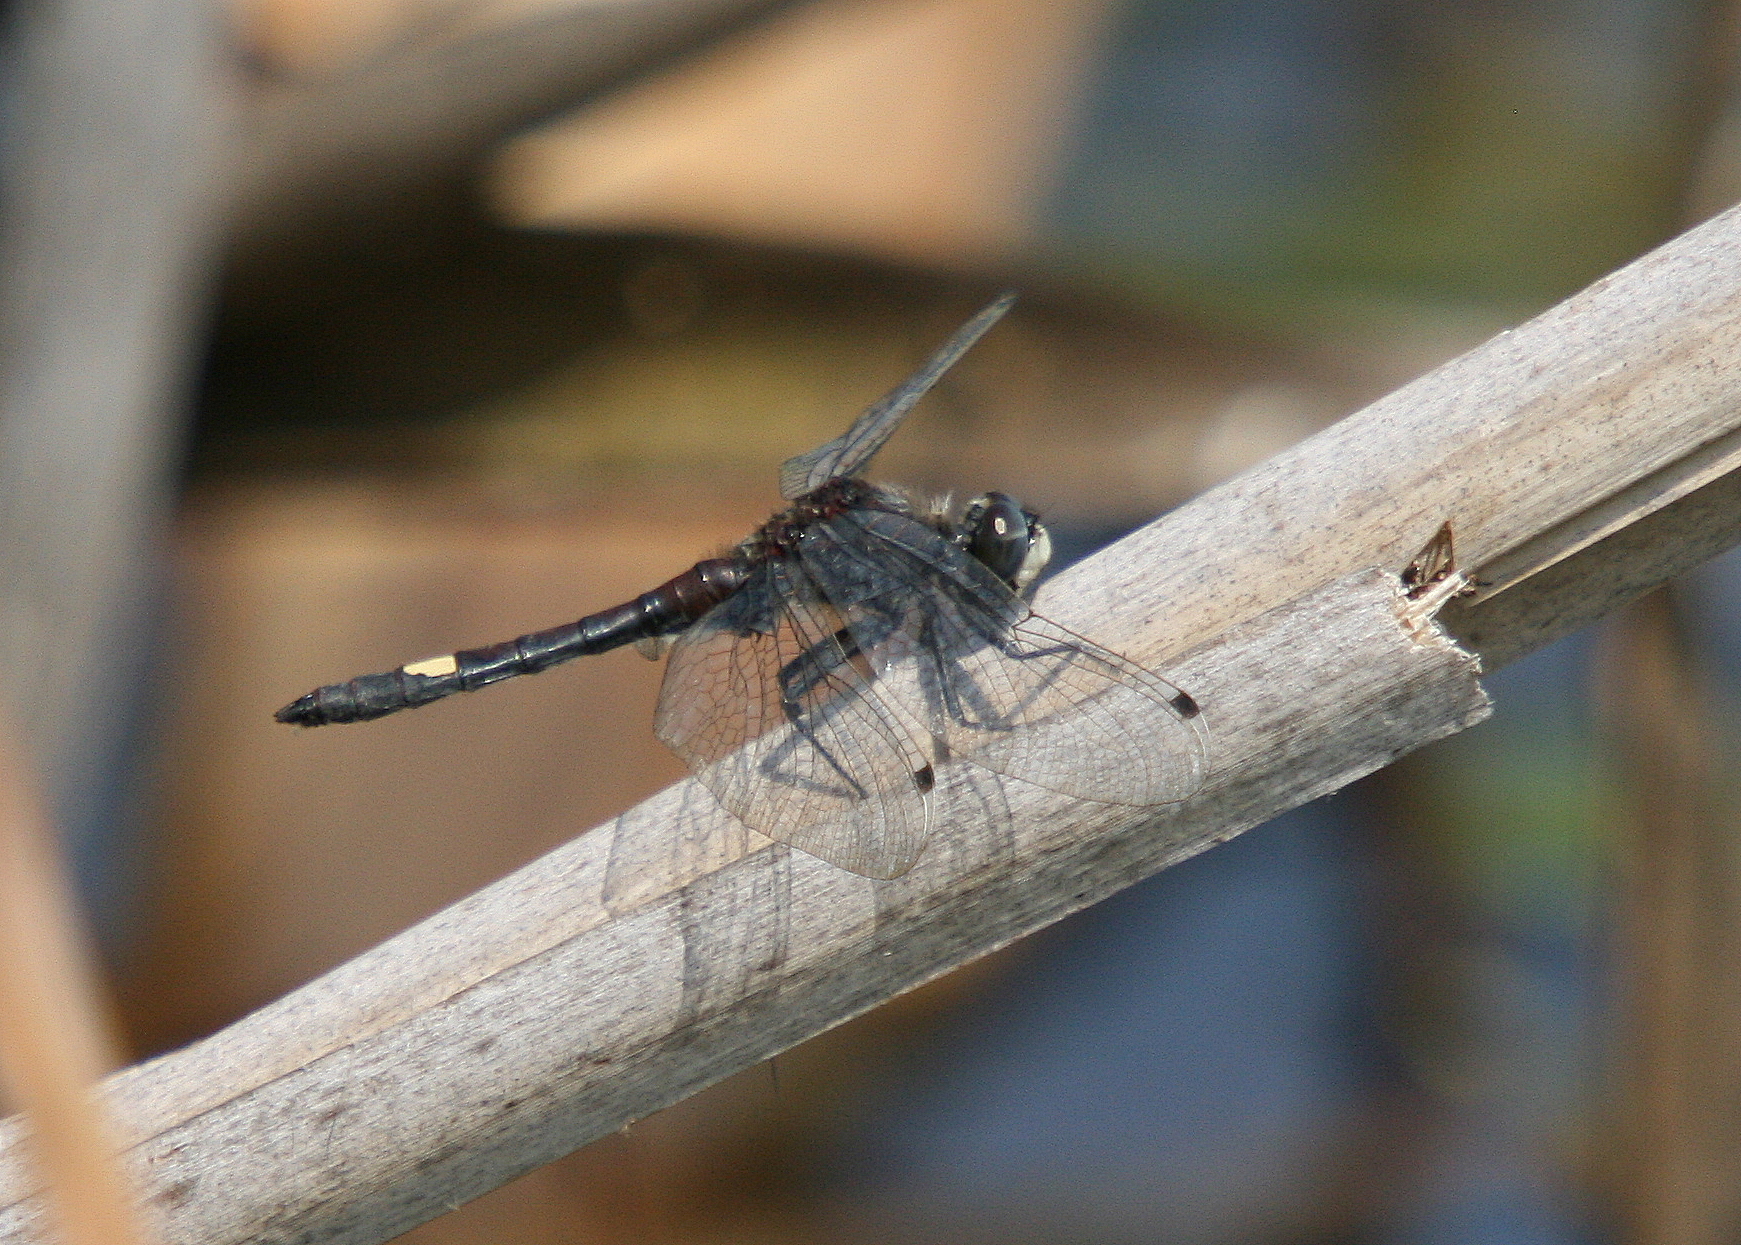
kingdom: Animalia
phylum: Arthropoda
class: Insecta
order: Odonata
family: Libellulidae
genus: Leucorrhinia
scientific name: Leucorrhinia pectoralis
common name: Yellow-spotted whiteface
